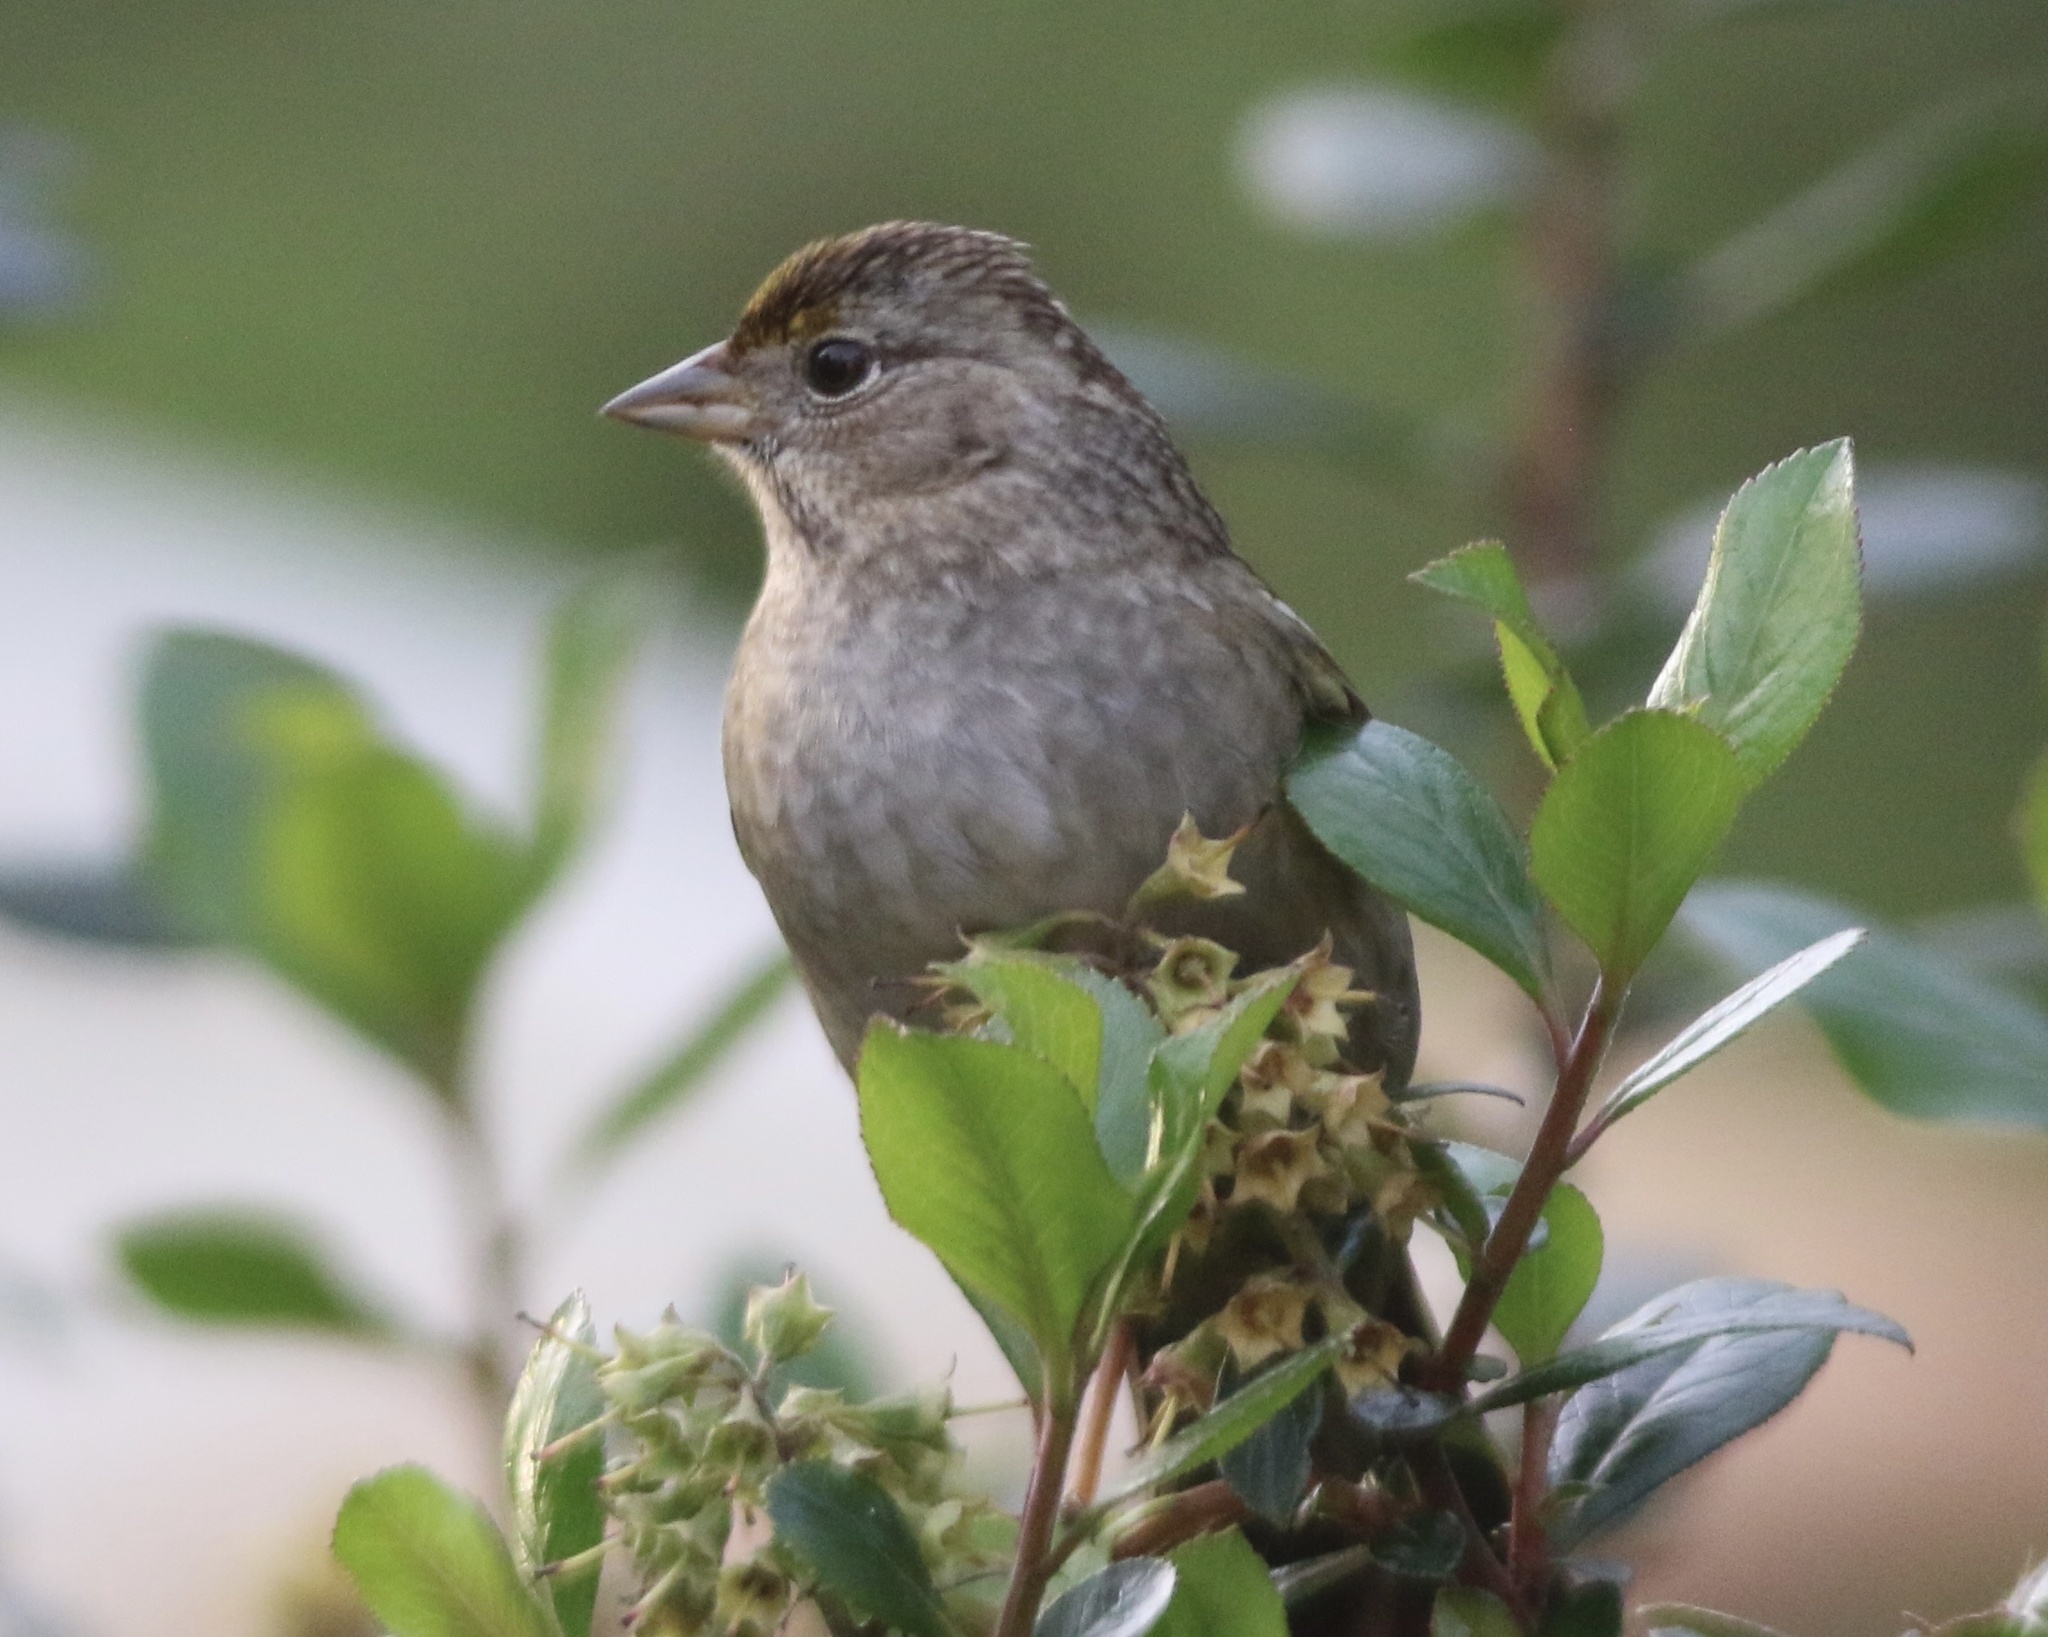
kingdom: Animalia
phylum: Chordata
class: Aves
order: Passeriformes
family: Passerellidae
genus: Zonotrichia
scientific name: Zonotrichia atricapilla
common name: Golden-crowned sparrow
